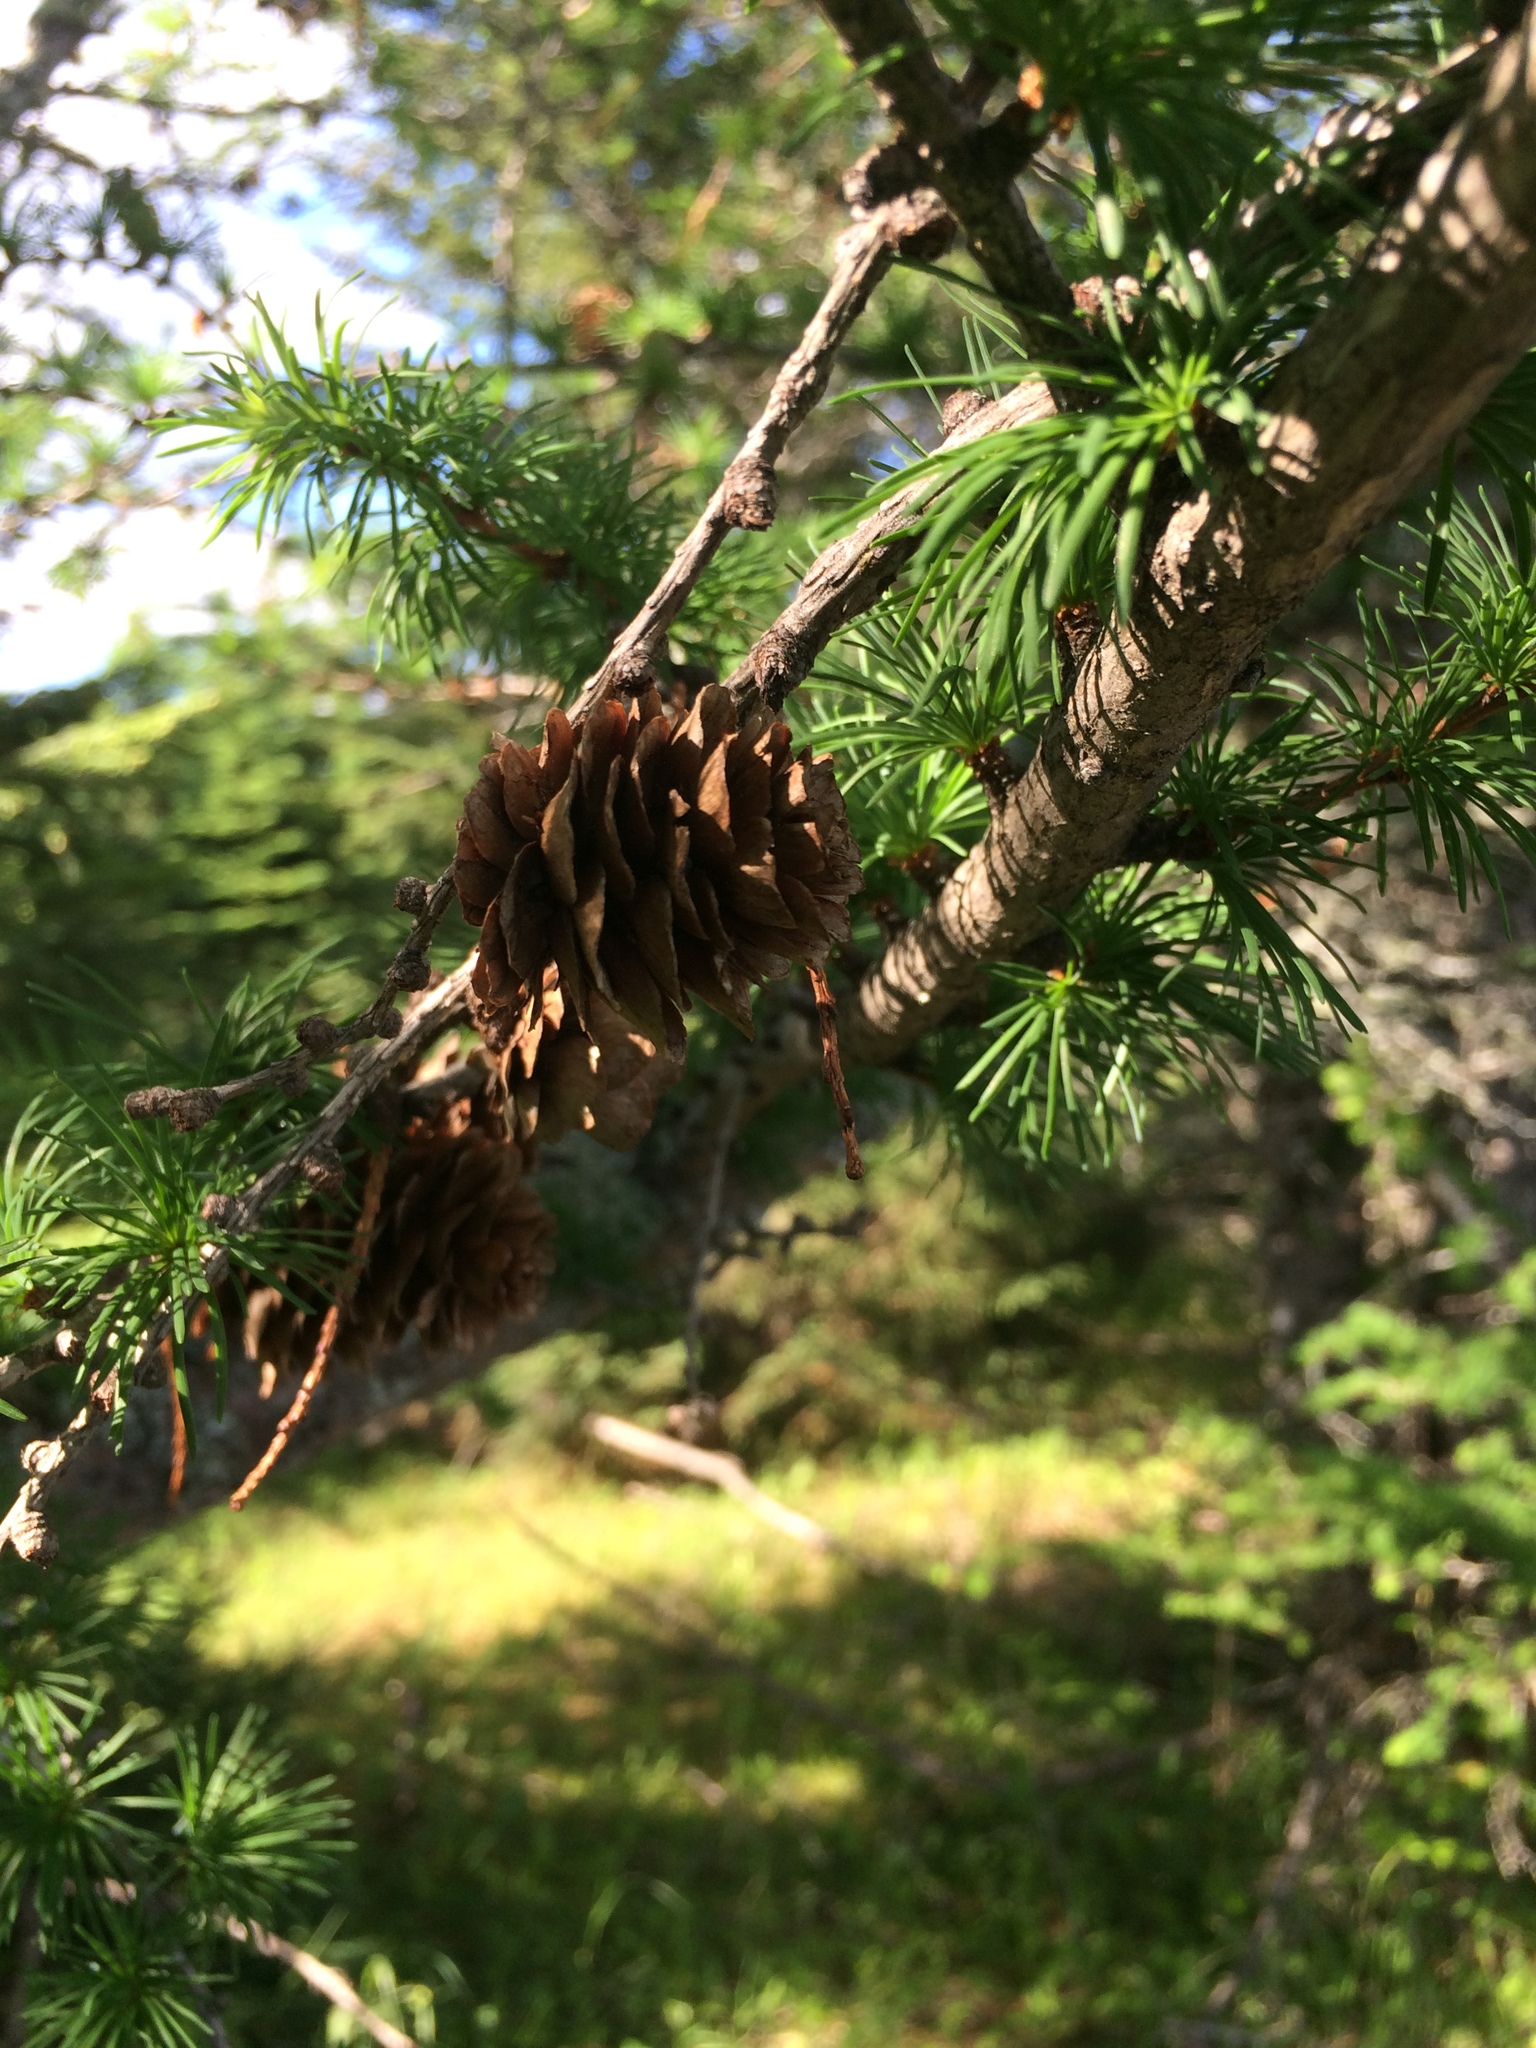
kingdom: Plantae
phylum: Tracheophyta
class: Pinopsida
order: Pinales
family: Pinaceae
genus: Larix
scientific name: Larix decidua
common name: European larch
